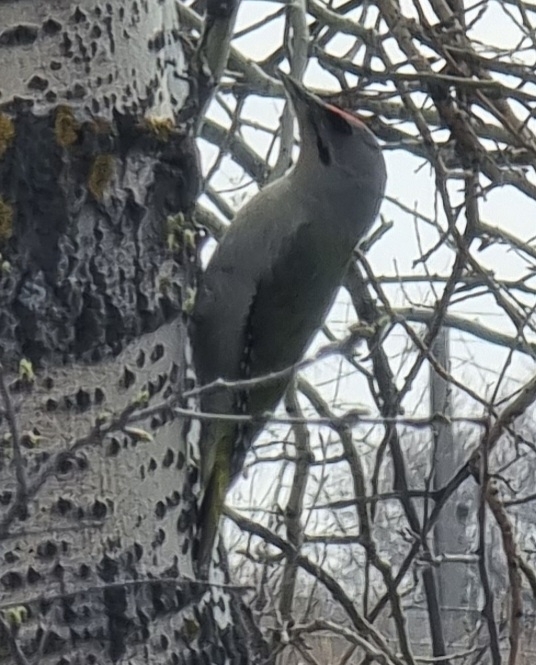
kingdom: Animalia
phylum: Chordata
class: Aves
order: Piciformes
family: Picidae
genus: Picus
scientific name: Picus canus
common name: Grey-headed woodpecker
